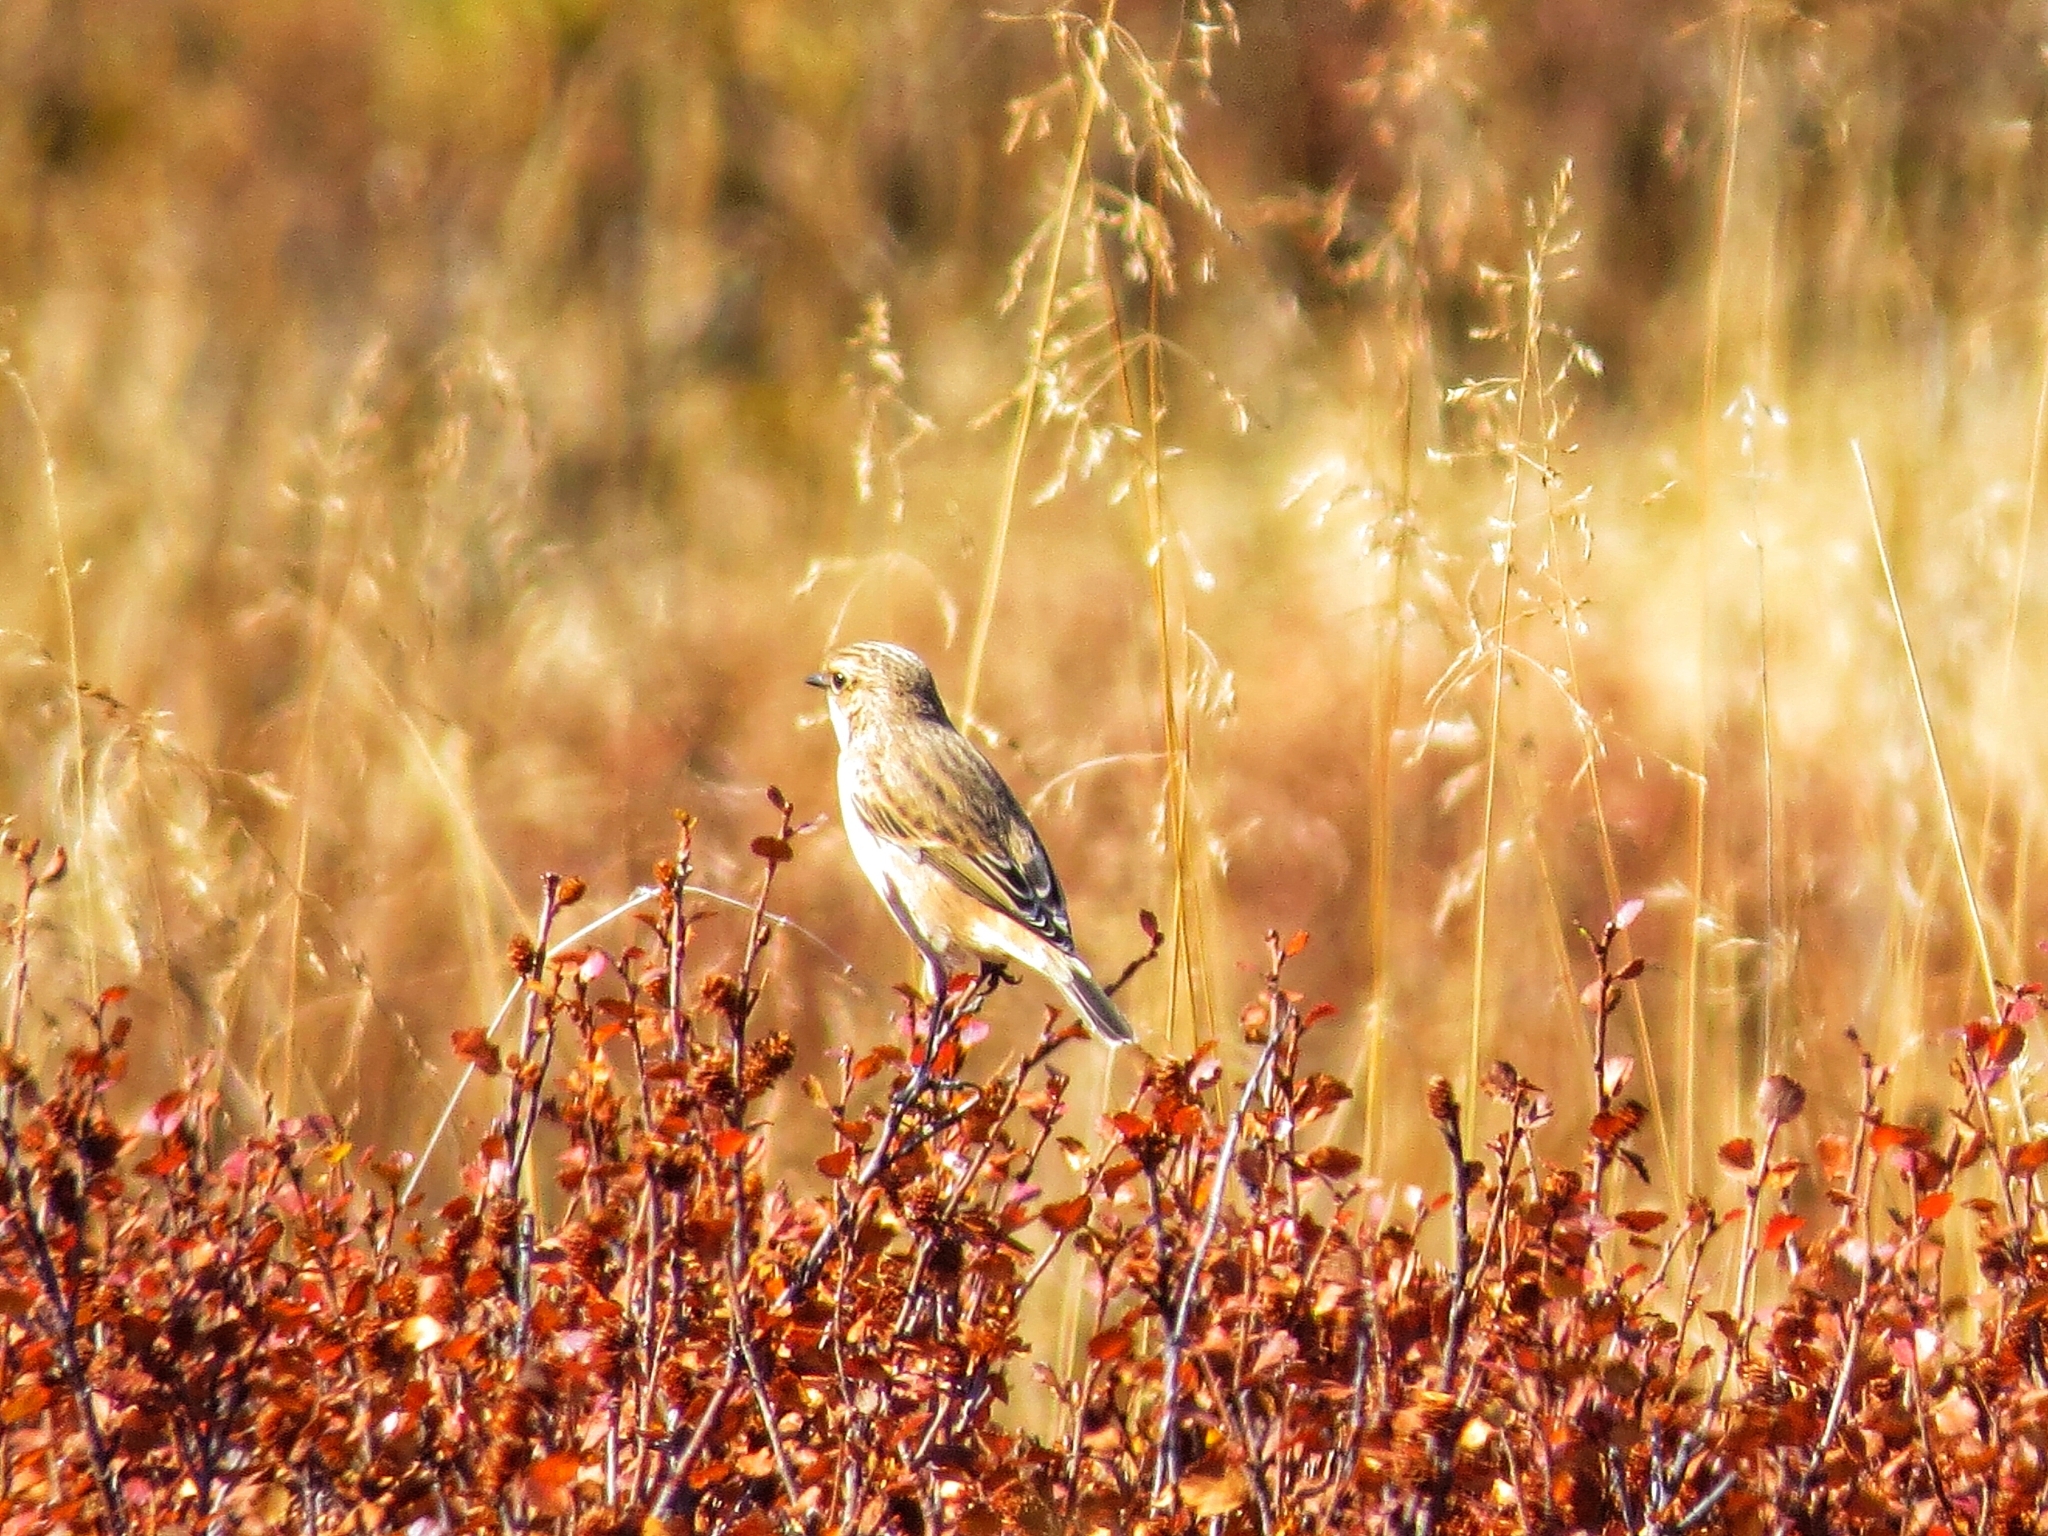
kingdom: Animalia
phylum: Chordata
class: Aves
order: Passeriformes
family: Muscicapidae
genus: Saxicola
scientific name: Saxicola maurus
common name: Siberian stonechat
